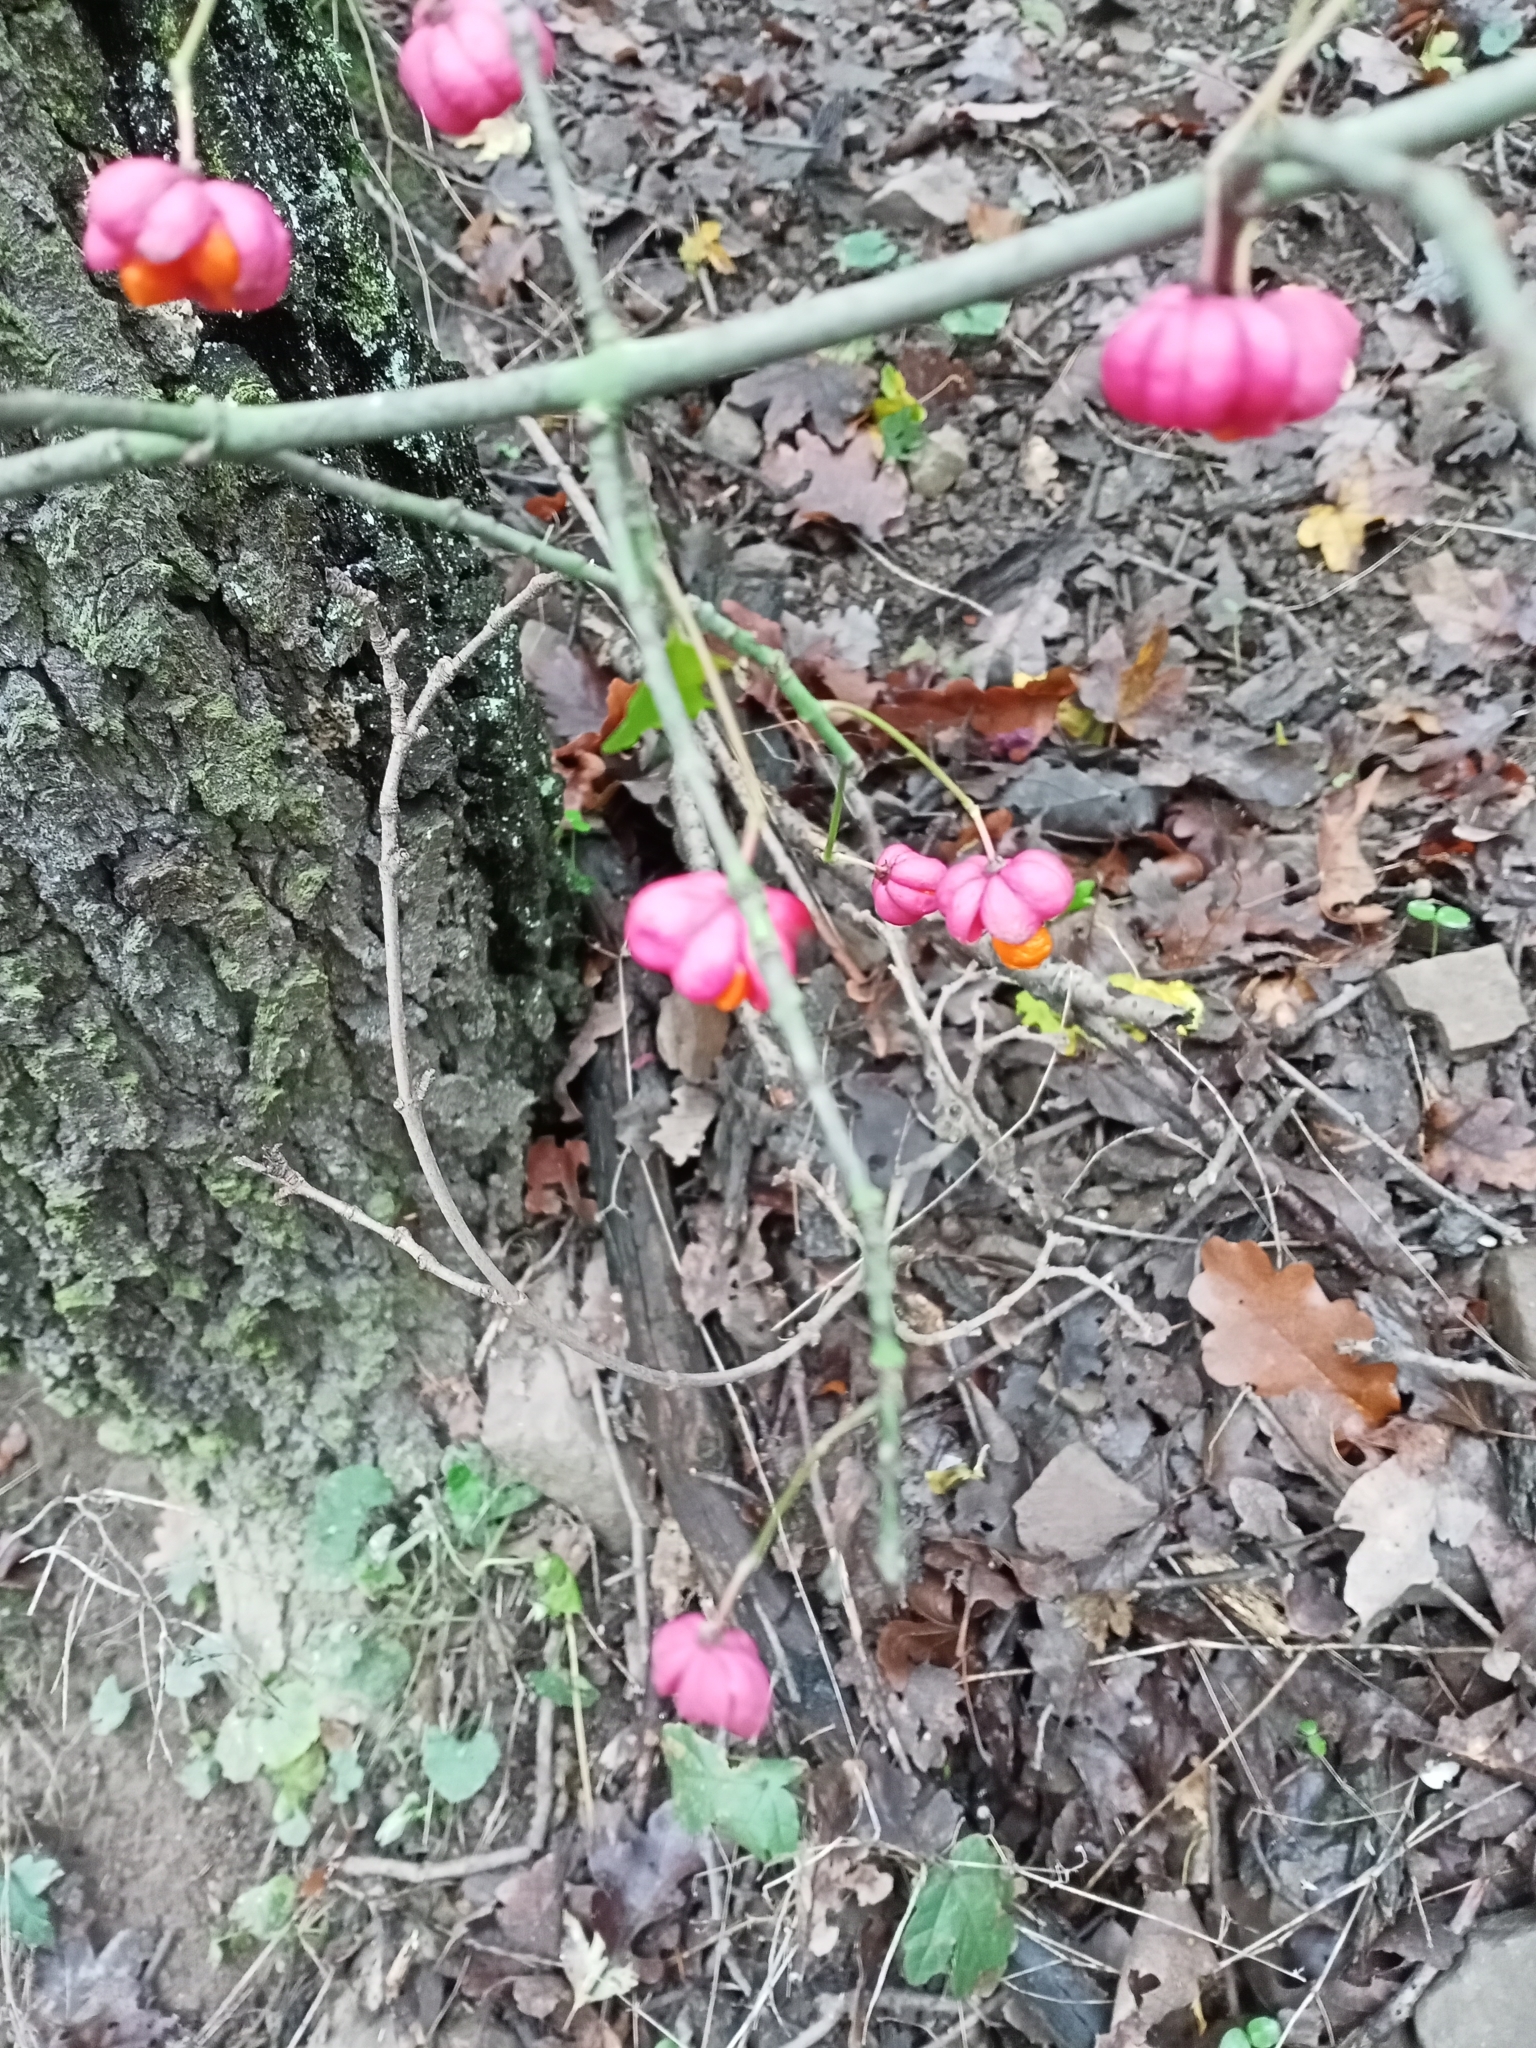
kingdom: Plantae
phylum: Tracheophyta
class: Magnoliopsida
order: Celastrales
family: Celastraceae
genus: Euonymus
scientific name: Euonymus europaeus
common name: Spindle
